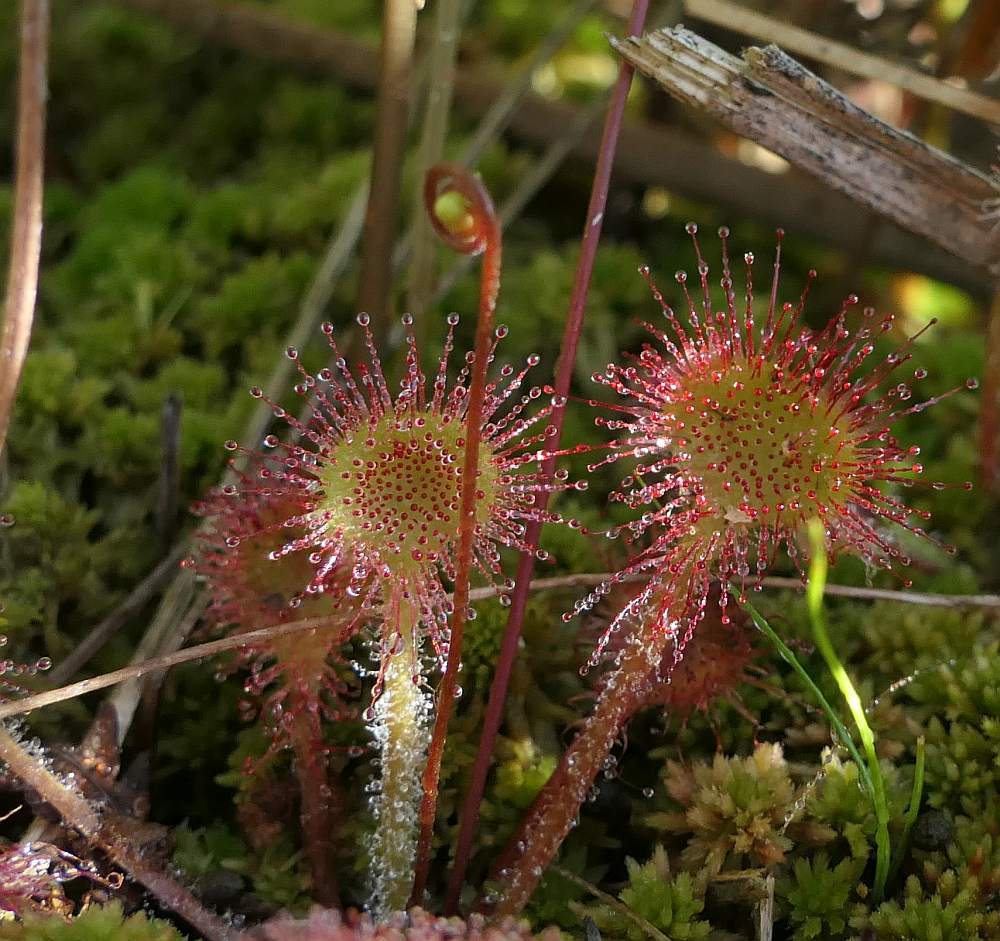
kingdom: Plantae
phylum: Tracheophyta
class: Magnoliopsida
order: Caryophyllales
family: Droseraceae
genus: Drosera
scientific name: Drosera rotundifolia
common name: Round-leaved sundew
